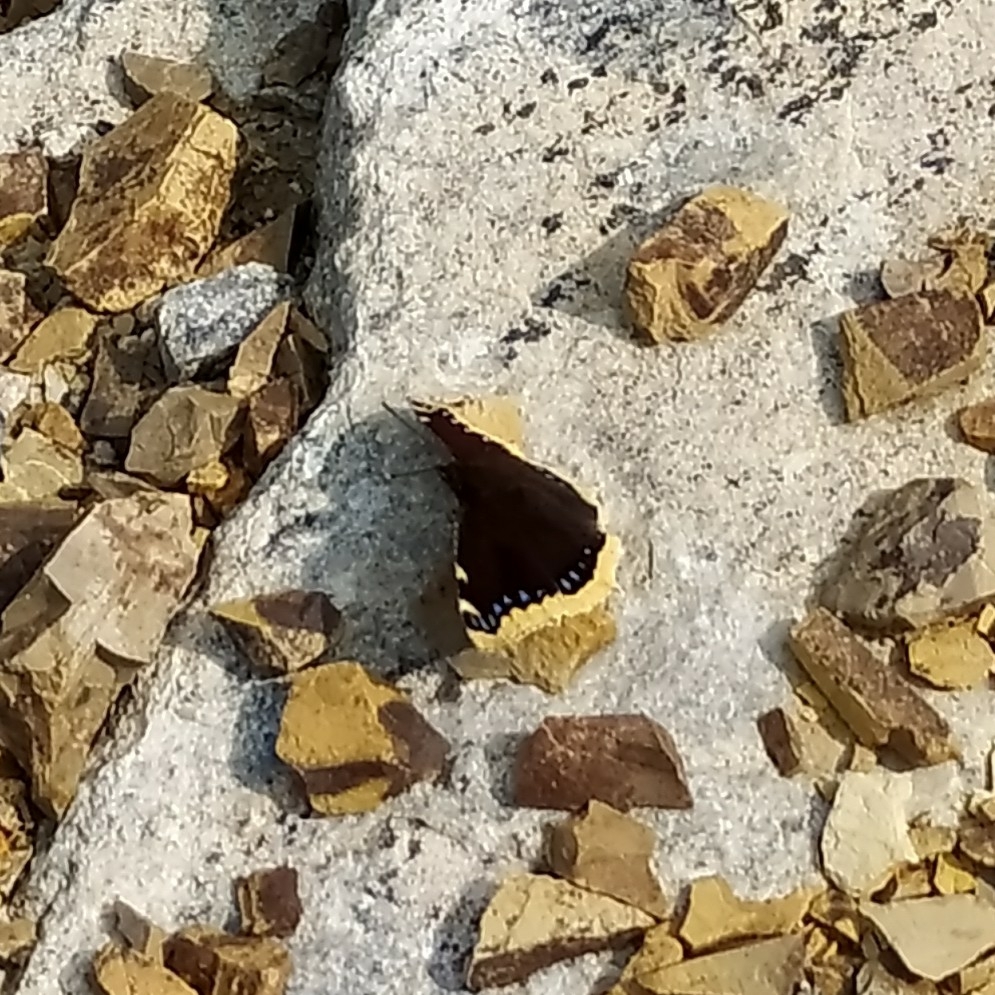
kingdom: Animalia
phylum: Arthropoda
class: Insecta
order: Lepidoptera
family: Nymphalidae
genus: Nymphalis
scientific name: Nymphalis antiopa
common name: Camberwell beauty
